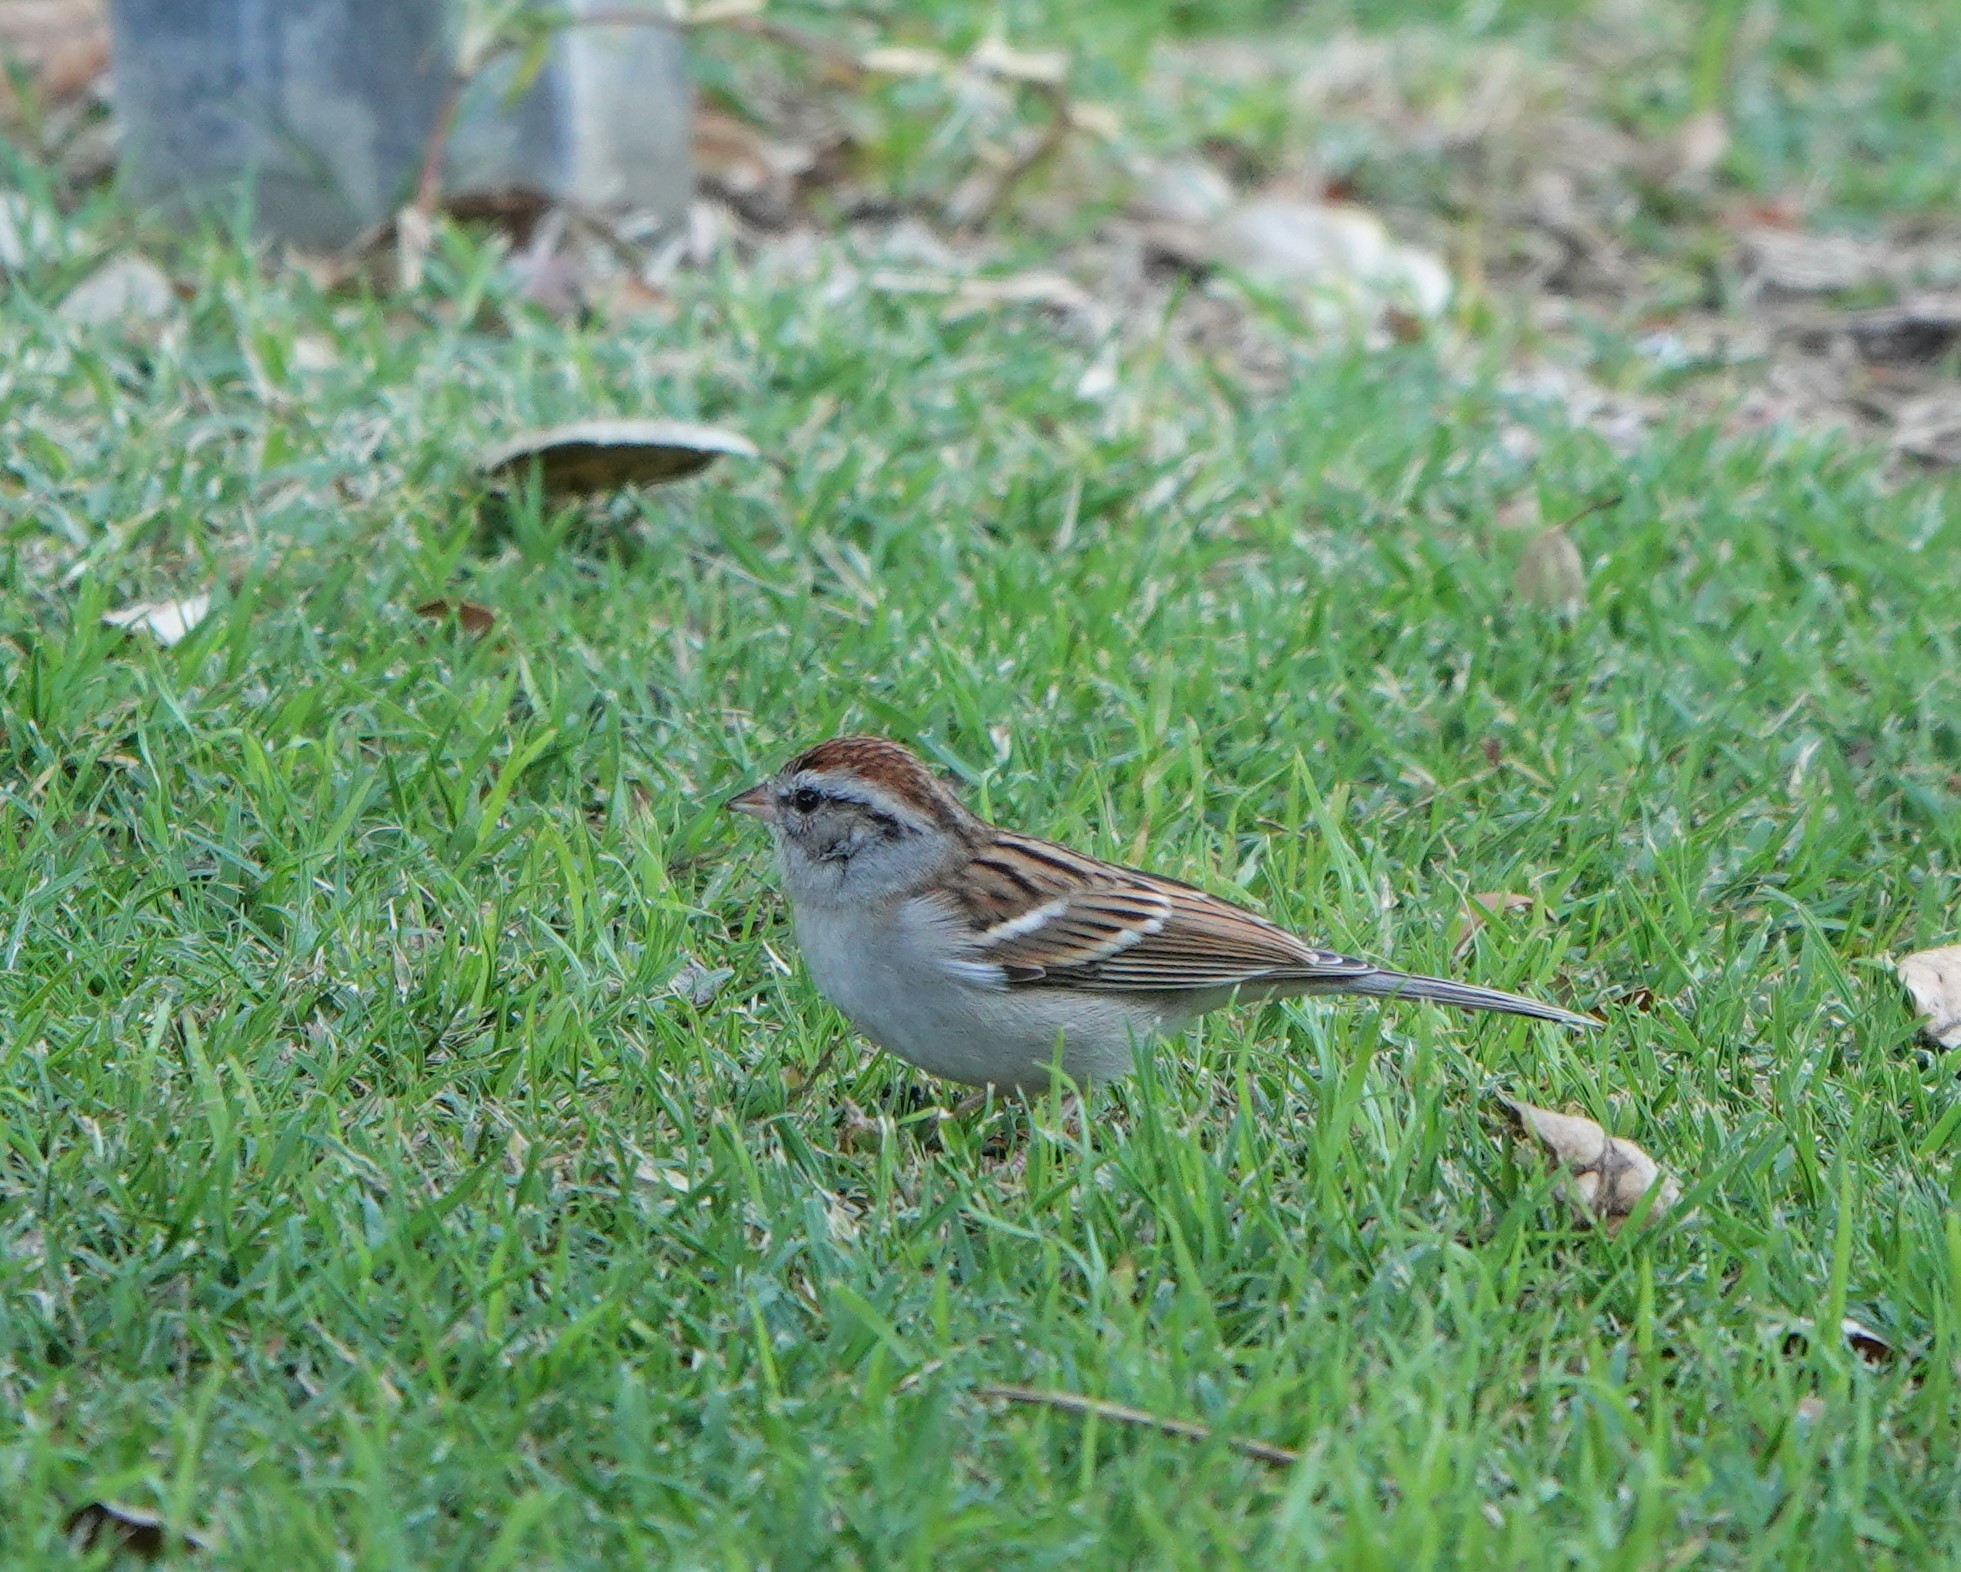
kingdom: Animalia
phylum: Chordata
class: Aves
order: Passeriformes
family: Passerellidae
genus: Spizella
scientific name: Spizella passerina
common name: Chipping sparrow
